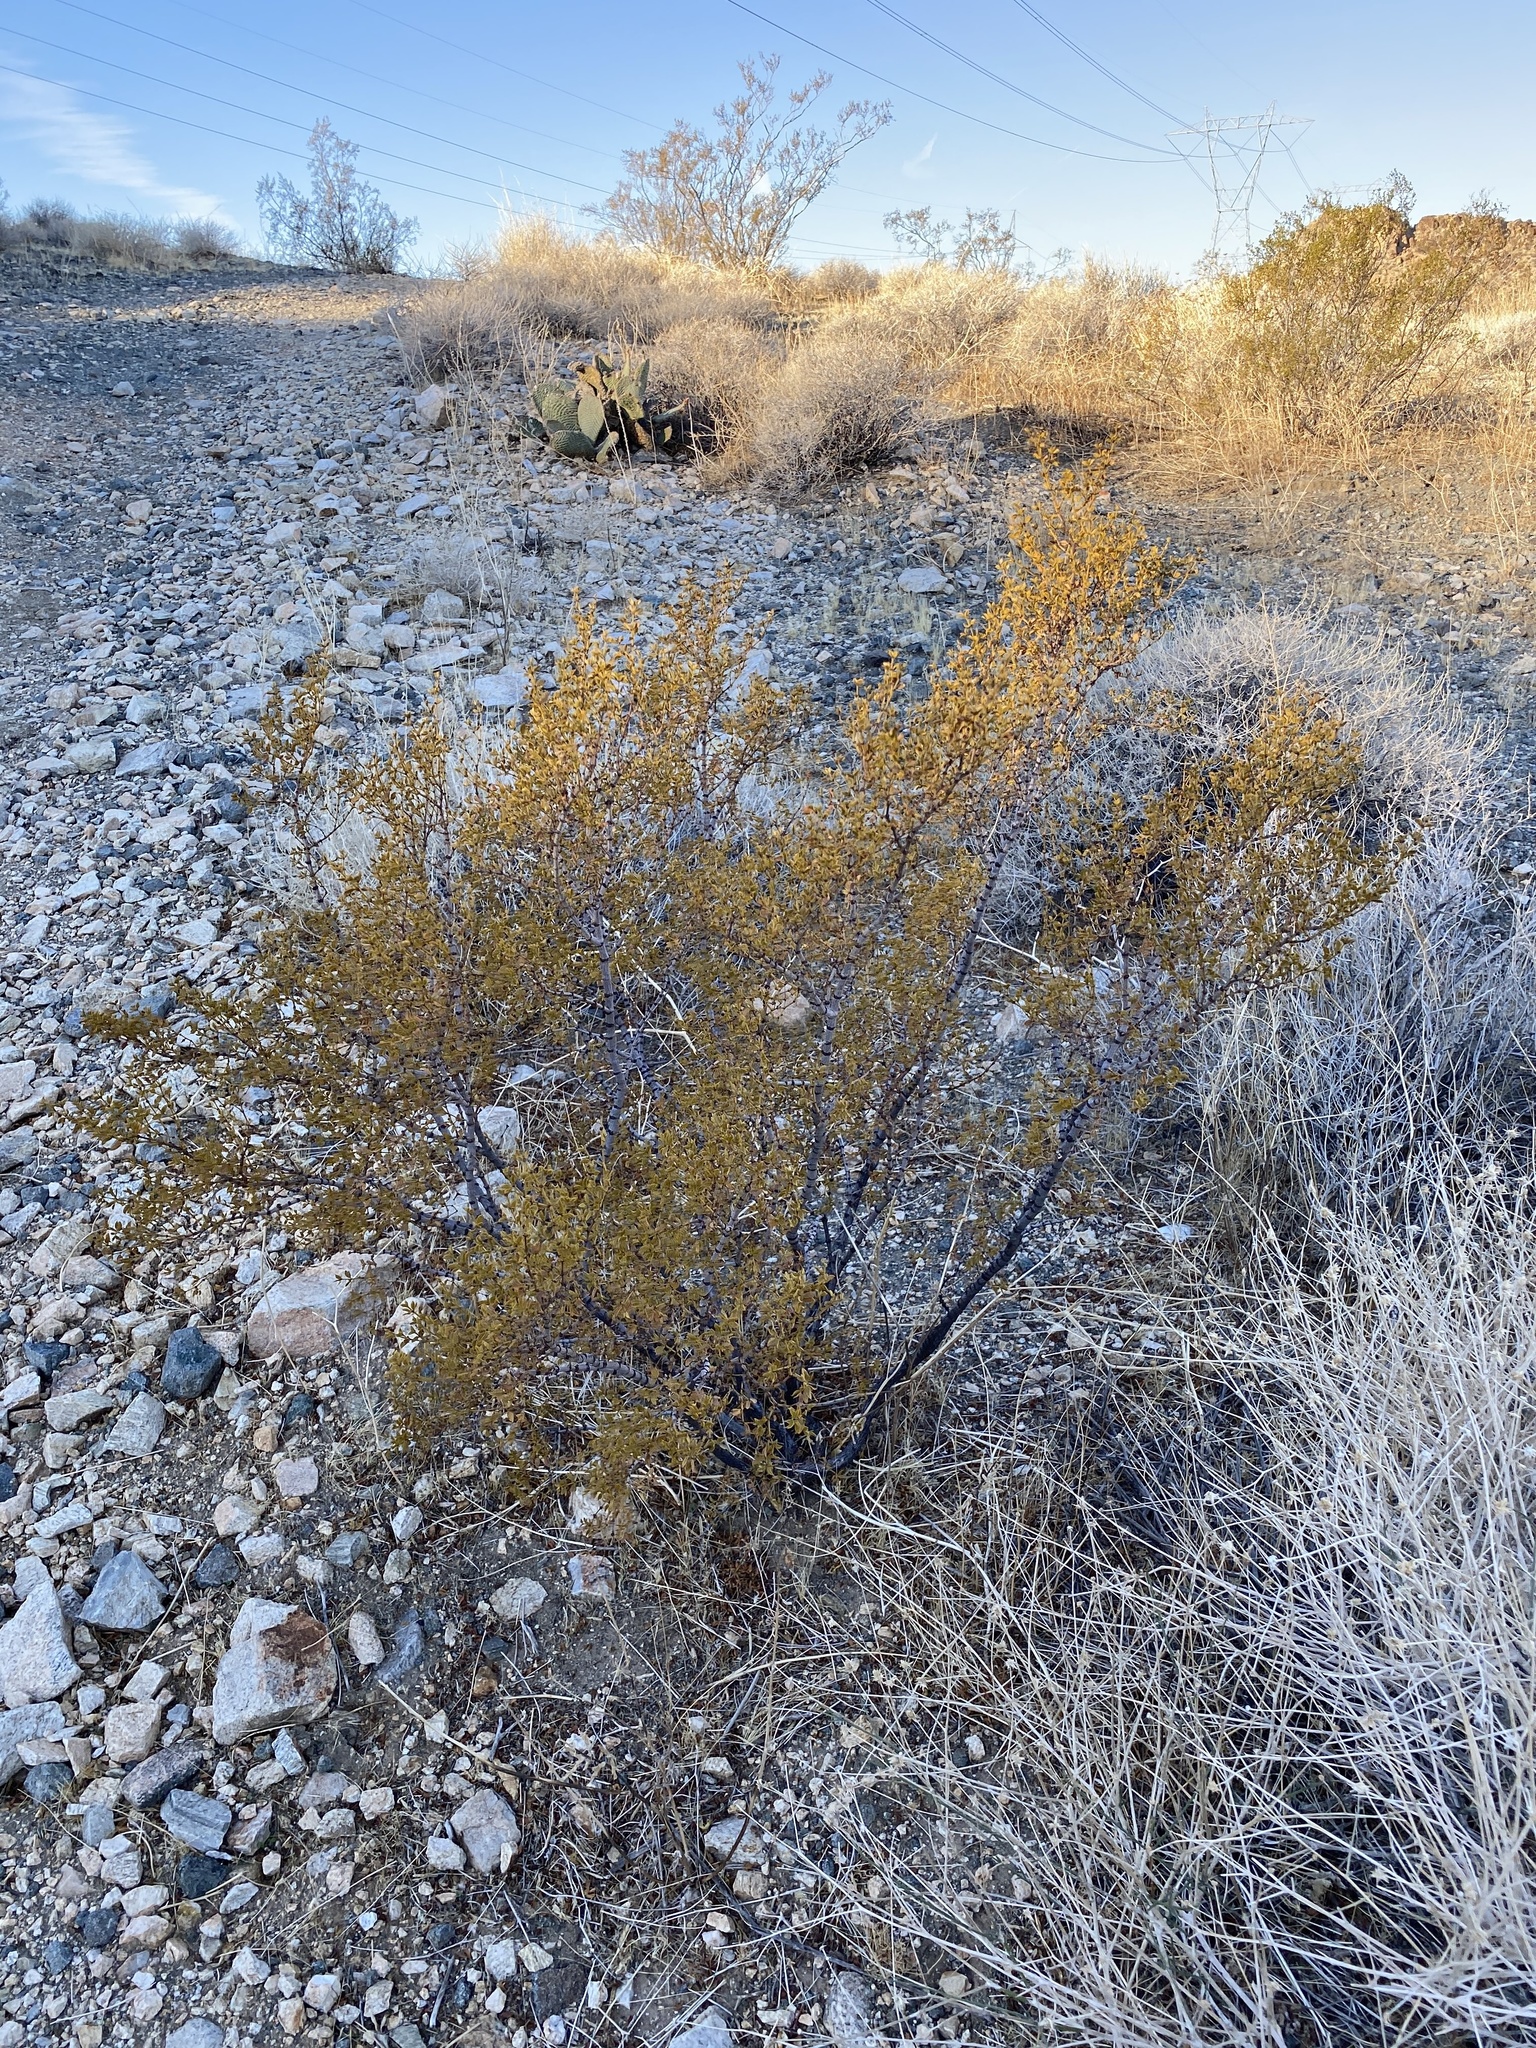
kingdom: Plantae
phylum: Tracheophyta
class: Magnoliopsida
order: Zygophyllales
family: Zygophyllaceae
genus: Larrea
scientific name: Larrea tridentata
